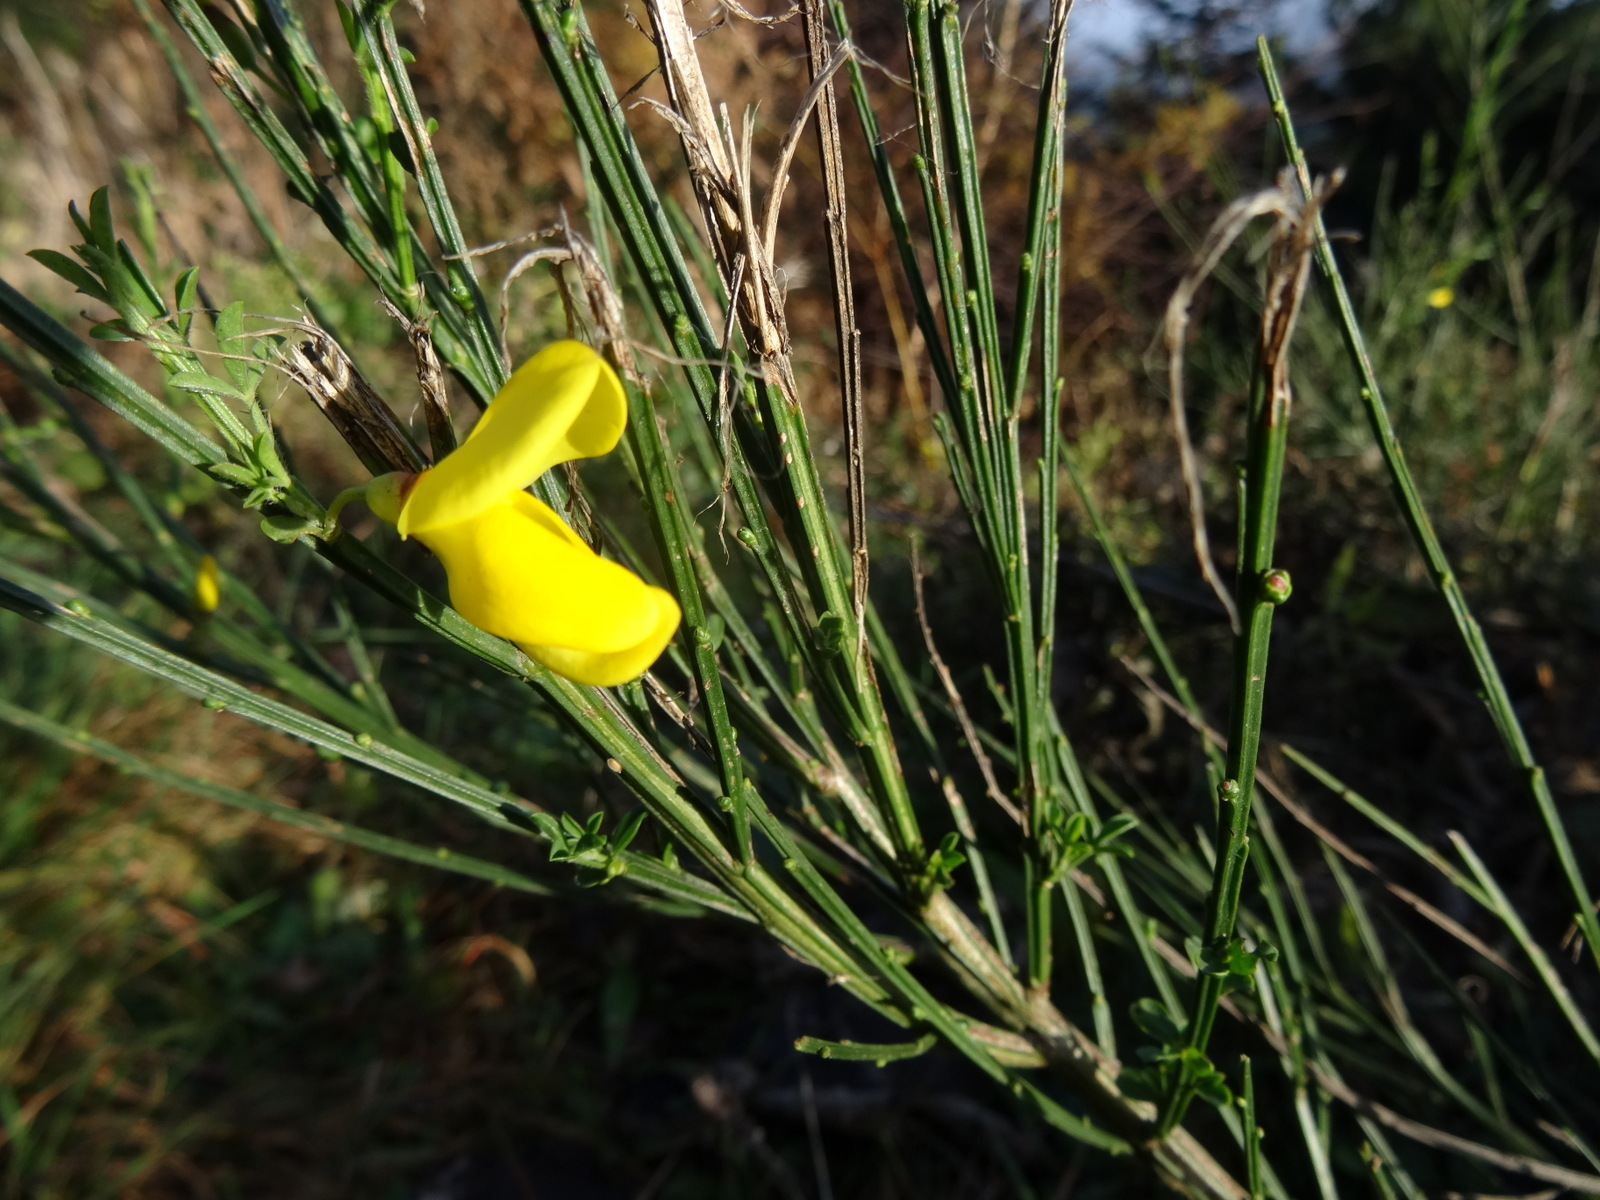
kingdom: Plantae
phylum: Tracheophyta
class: Magnoliopsida
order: Fabales
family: Fabaceae
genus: Cytisus
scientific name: Cytisus scoparius
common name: Scotch broom
